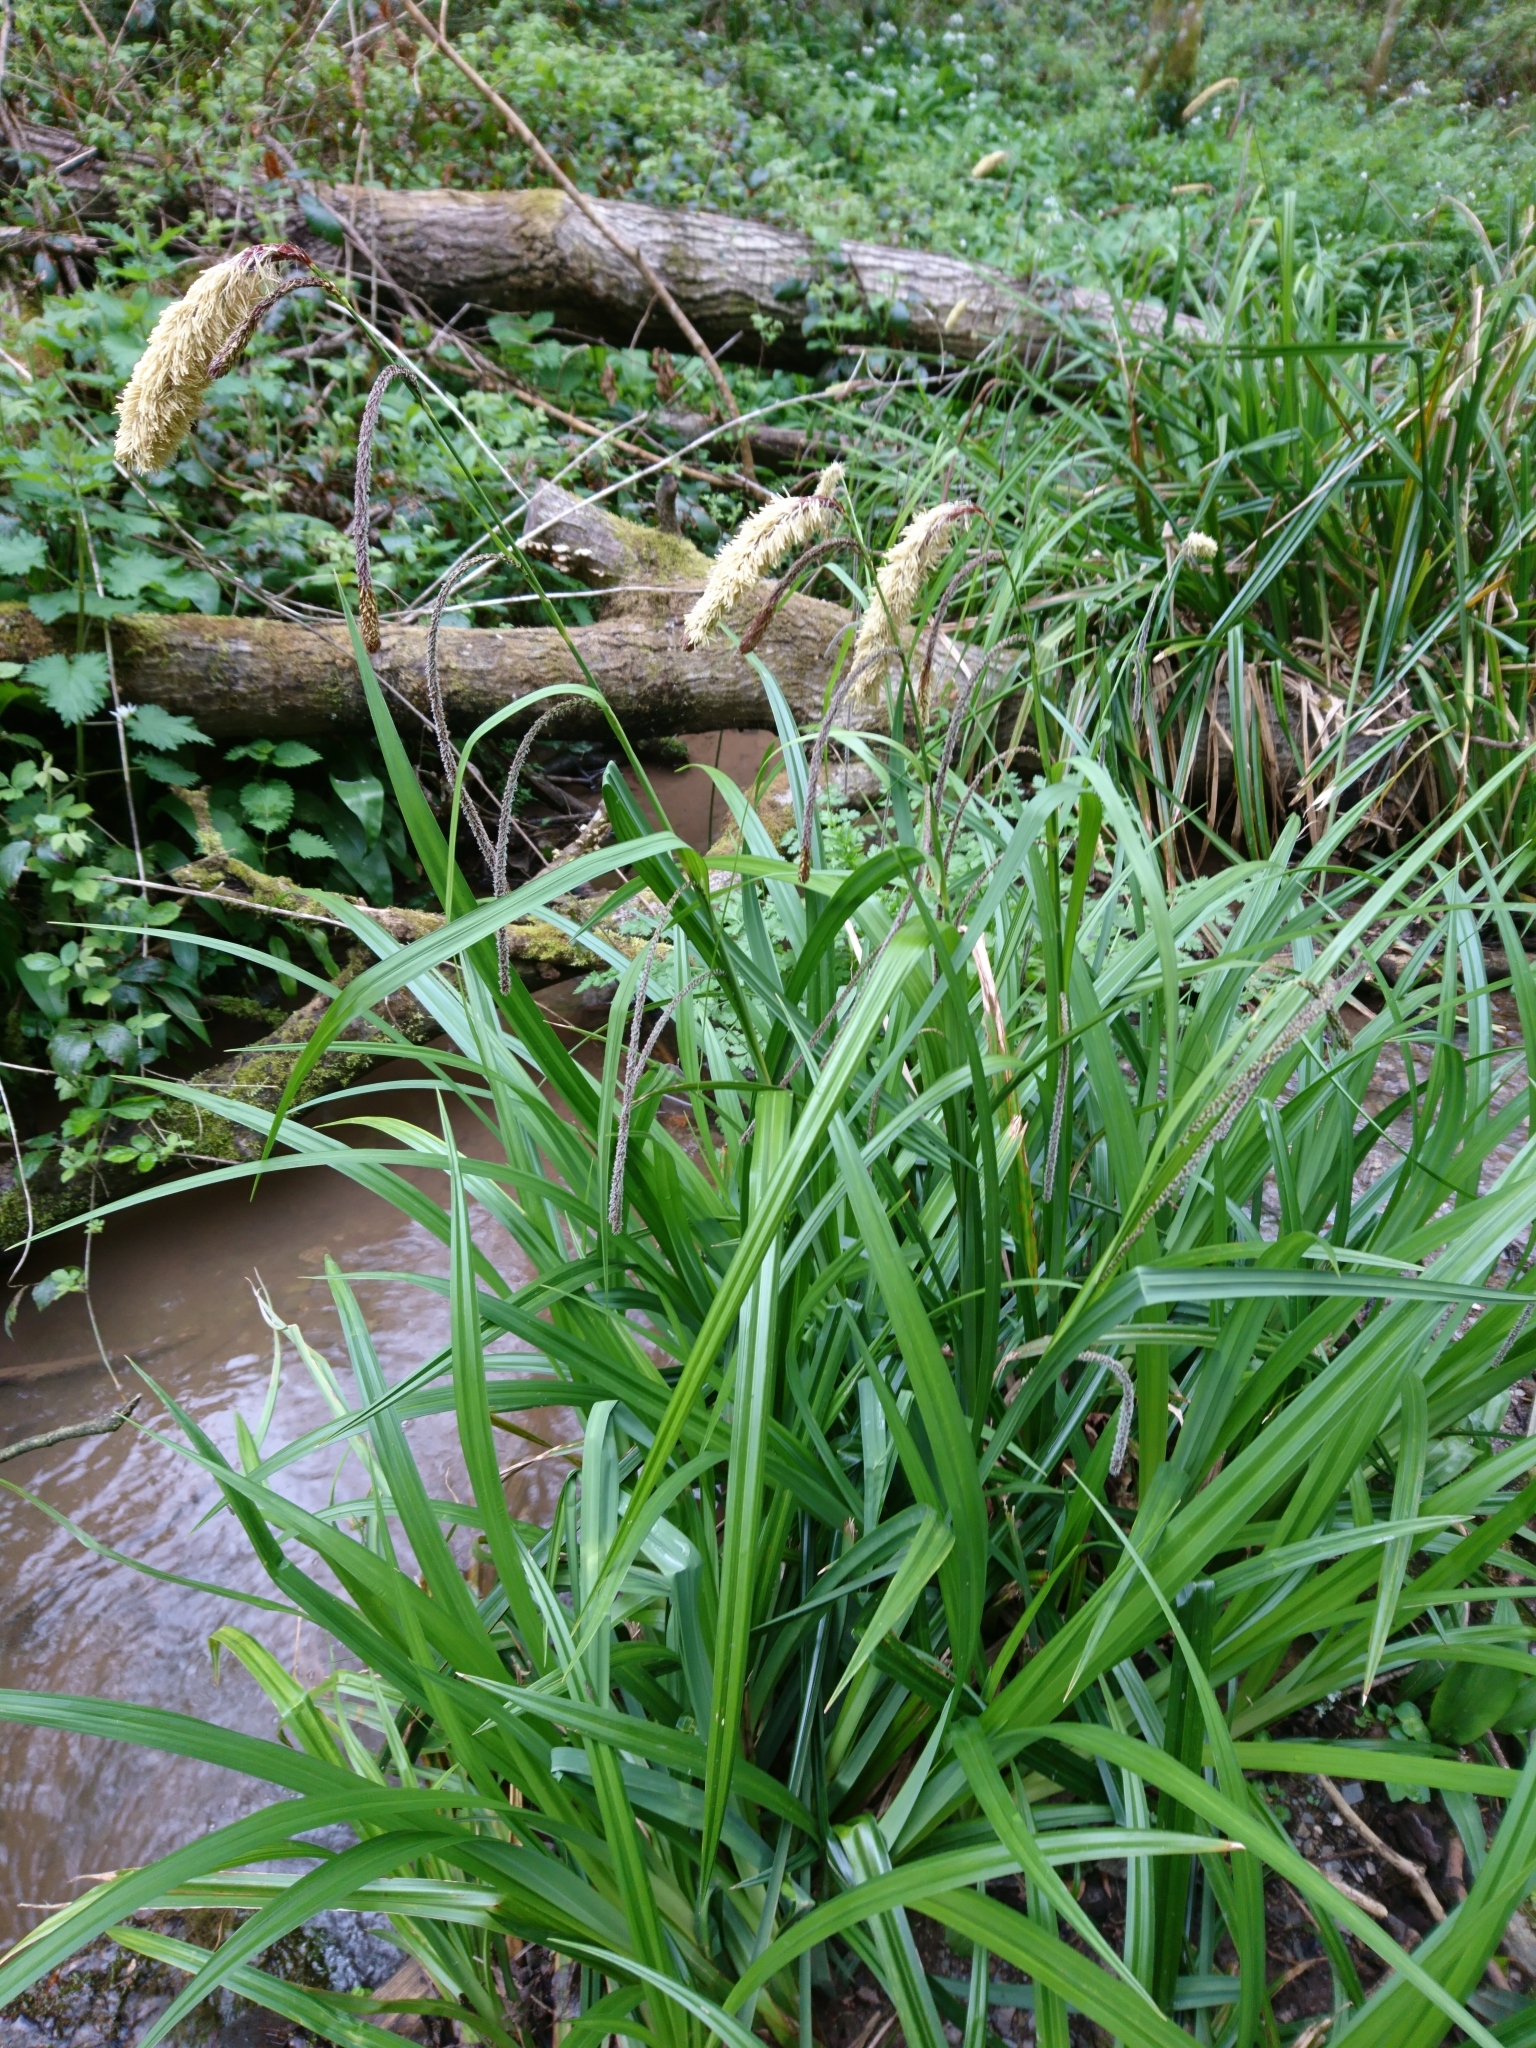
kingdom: Plantae
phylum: Tracheophyta
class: Liliopsida
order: Poales
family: Cyperaceae
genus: Carex
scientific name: Carex pendula
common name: Pendulous sedge
